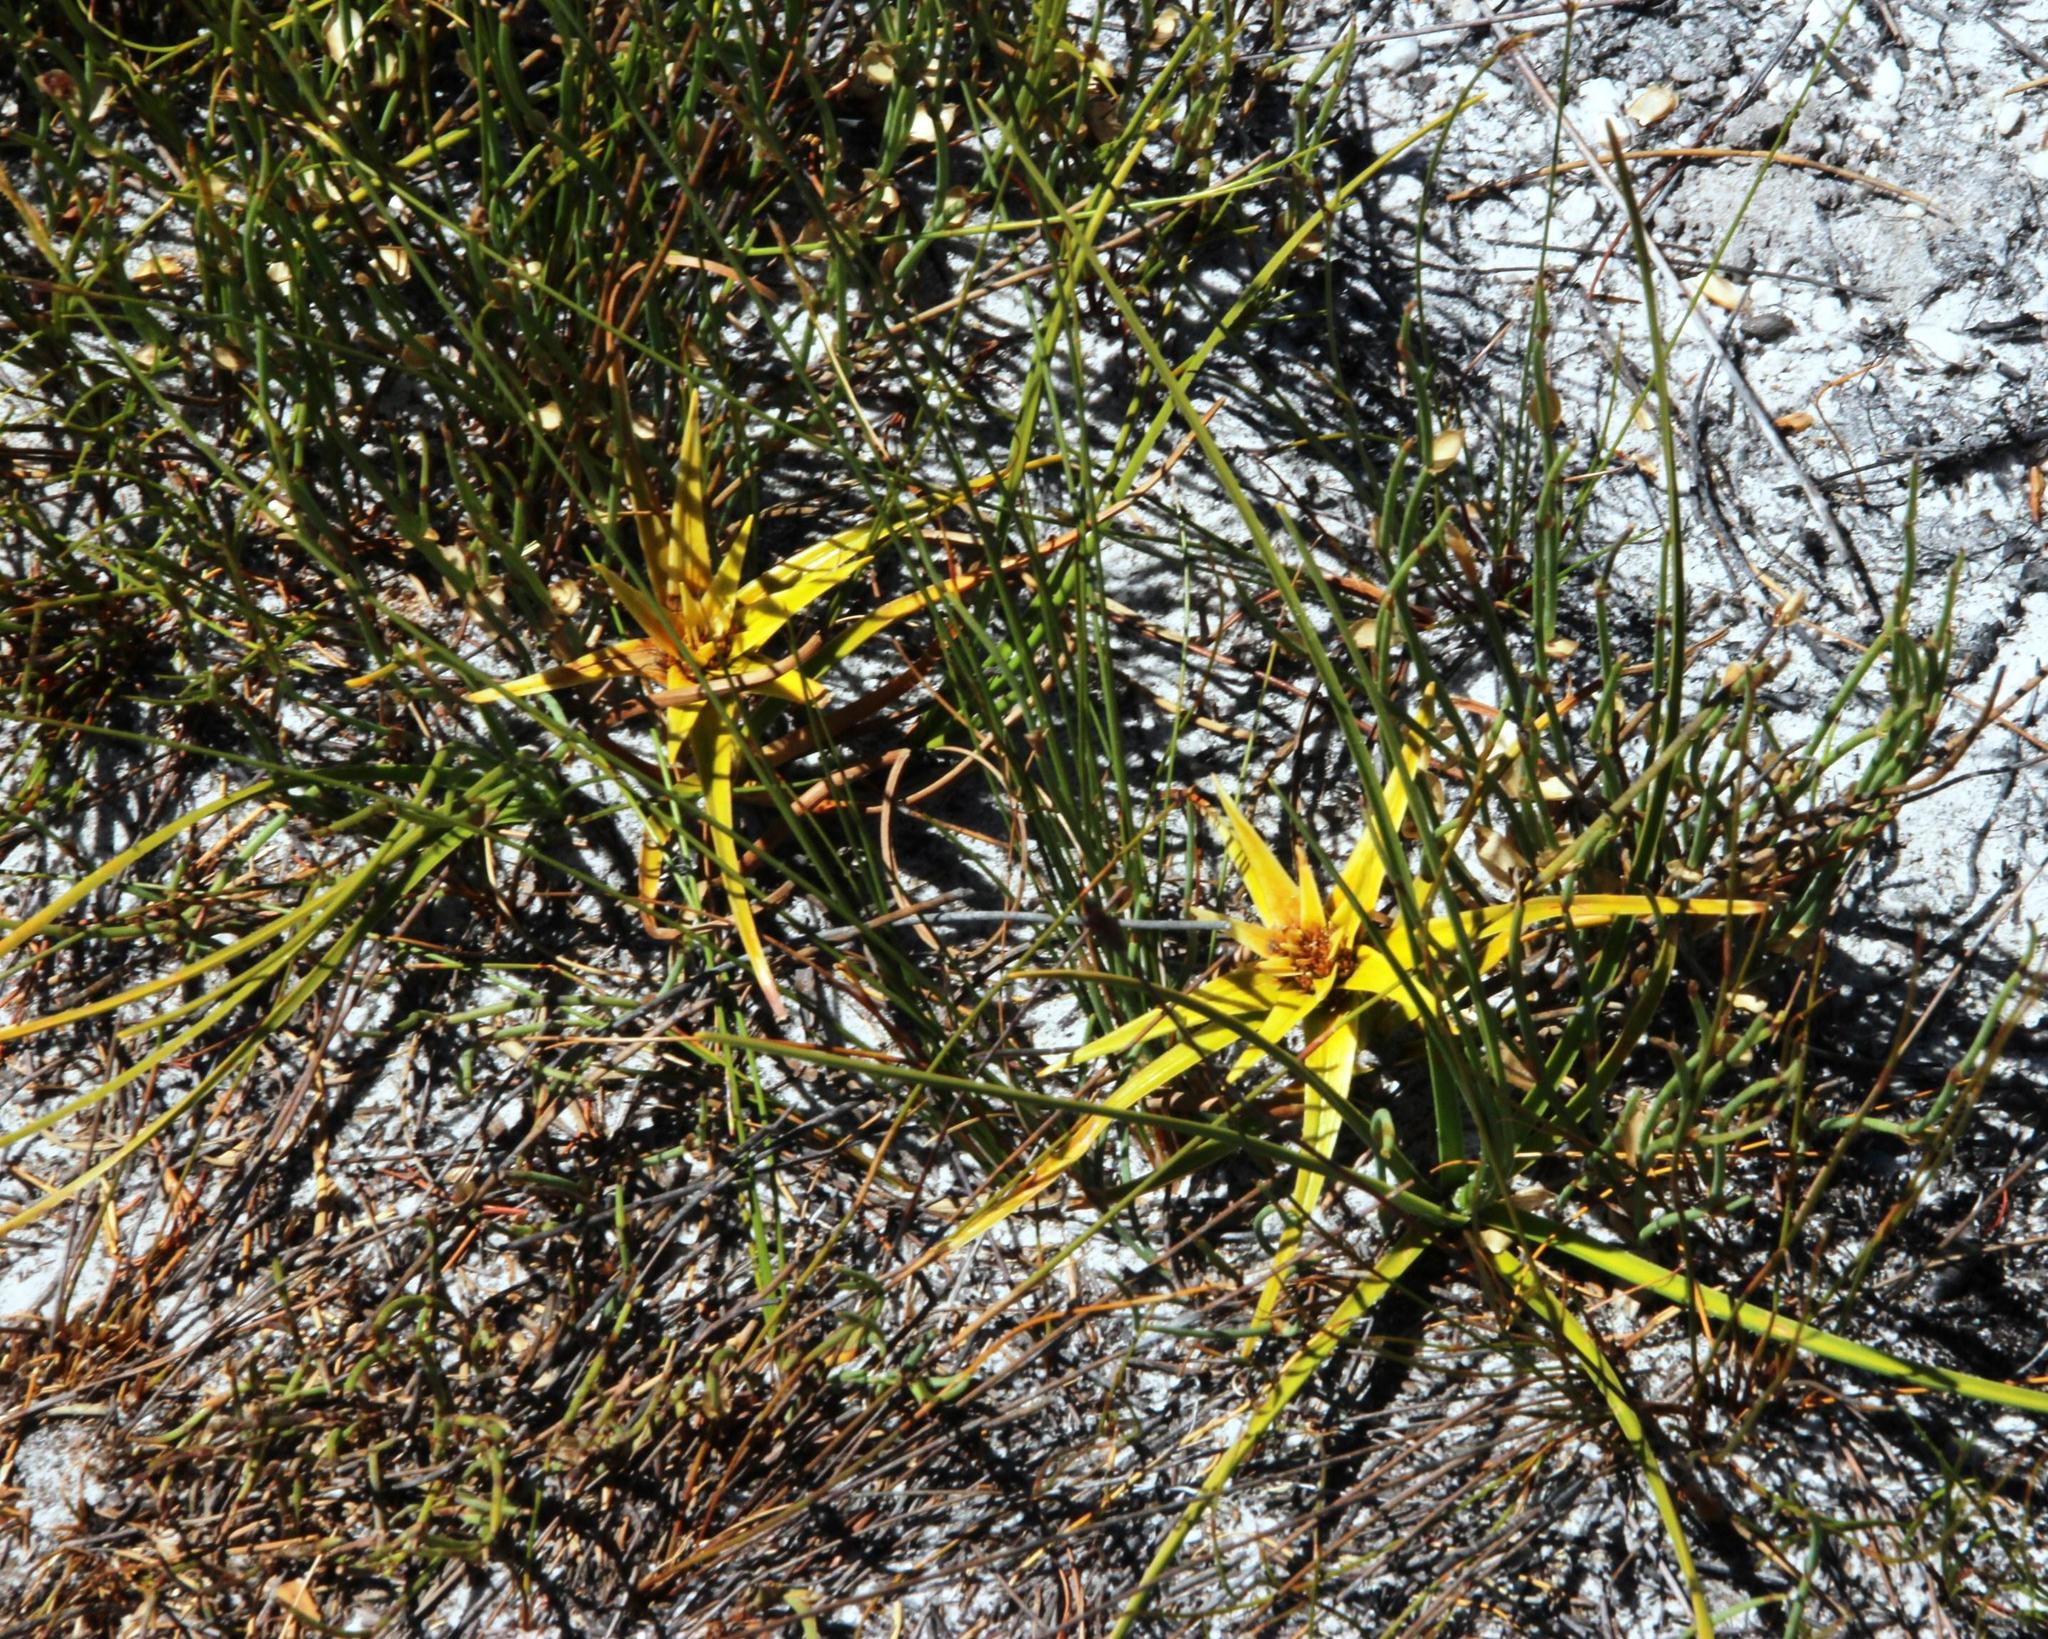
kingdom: Plantae
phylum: Tracheophyta
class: Liliopsida
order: Poales
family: Cyperaceae
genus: Ficinia
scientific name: Ficinia radiata
